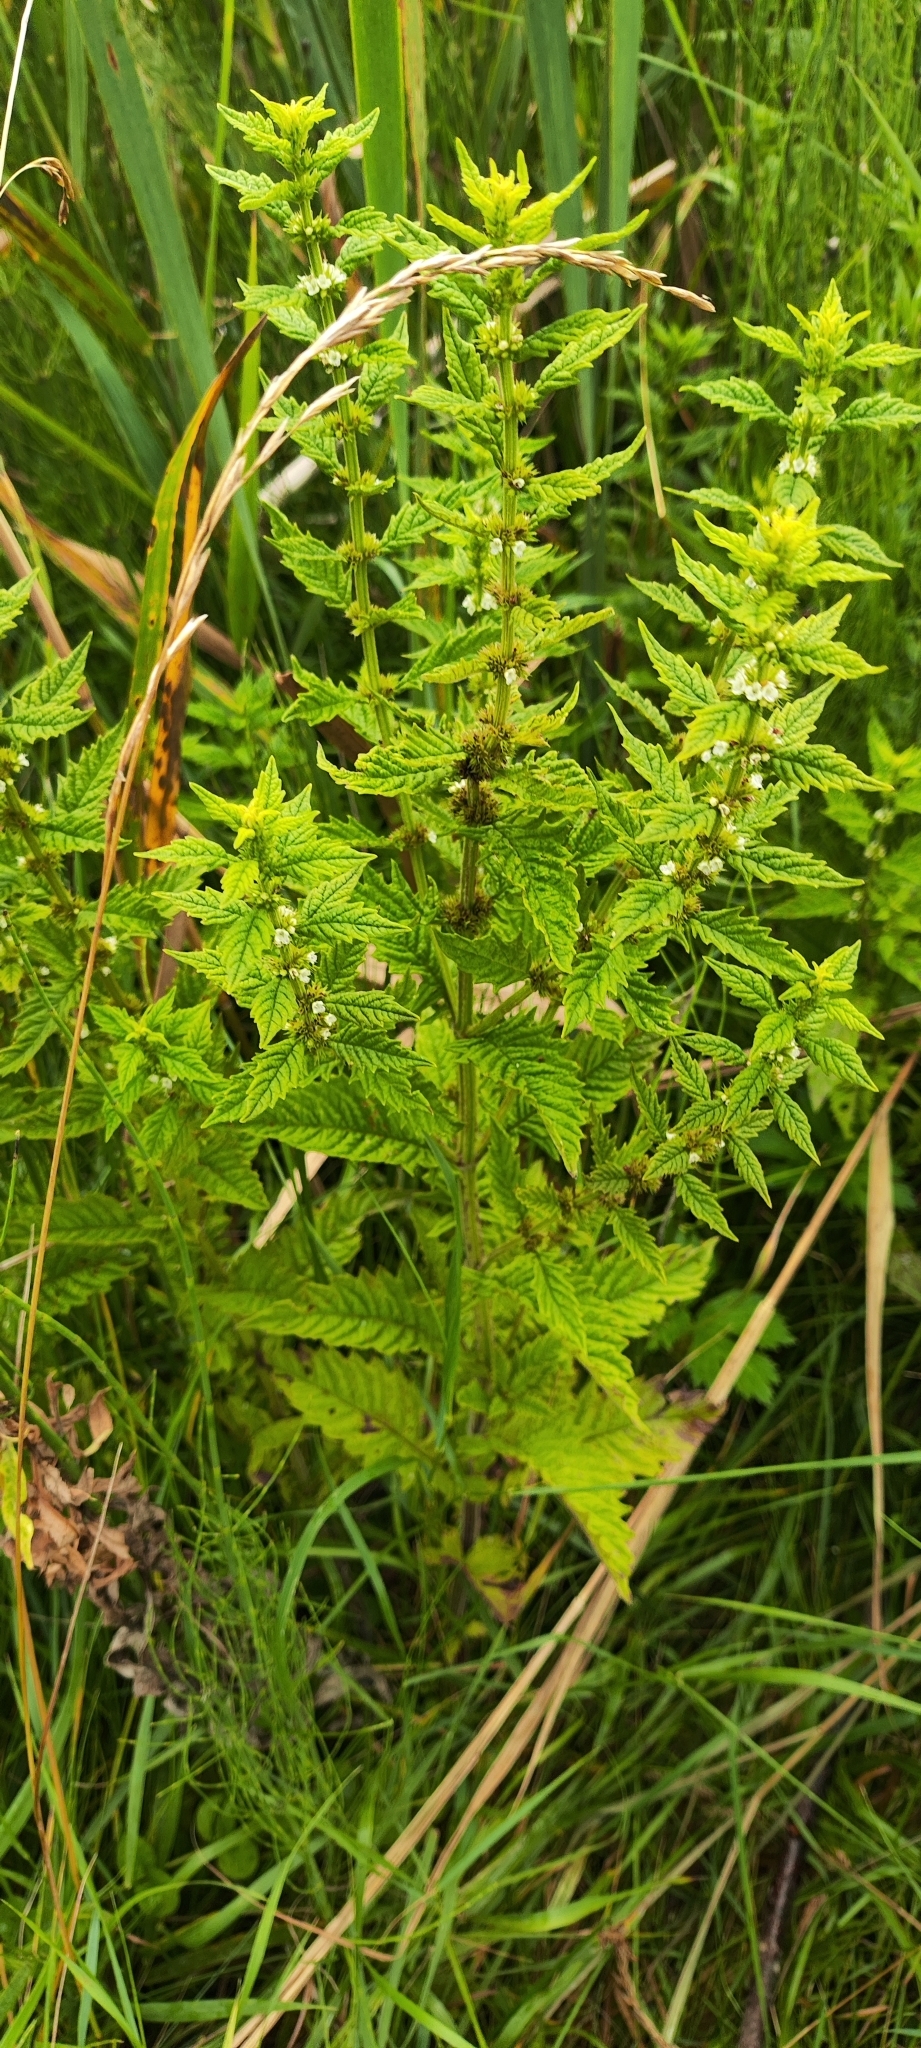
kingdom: Plantae
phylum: Tracheophyta
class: Magnoliopsida
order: Lamiales
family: Lamiaceae
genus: Lycopus
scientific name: Lycopus europaeus
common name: European bugleweed
